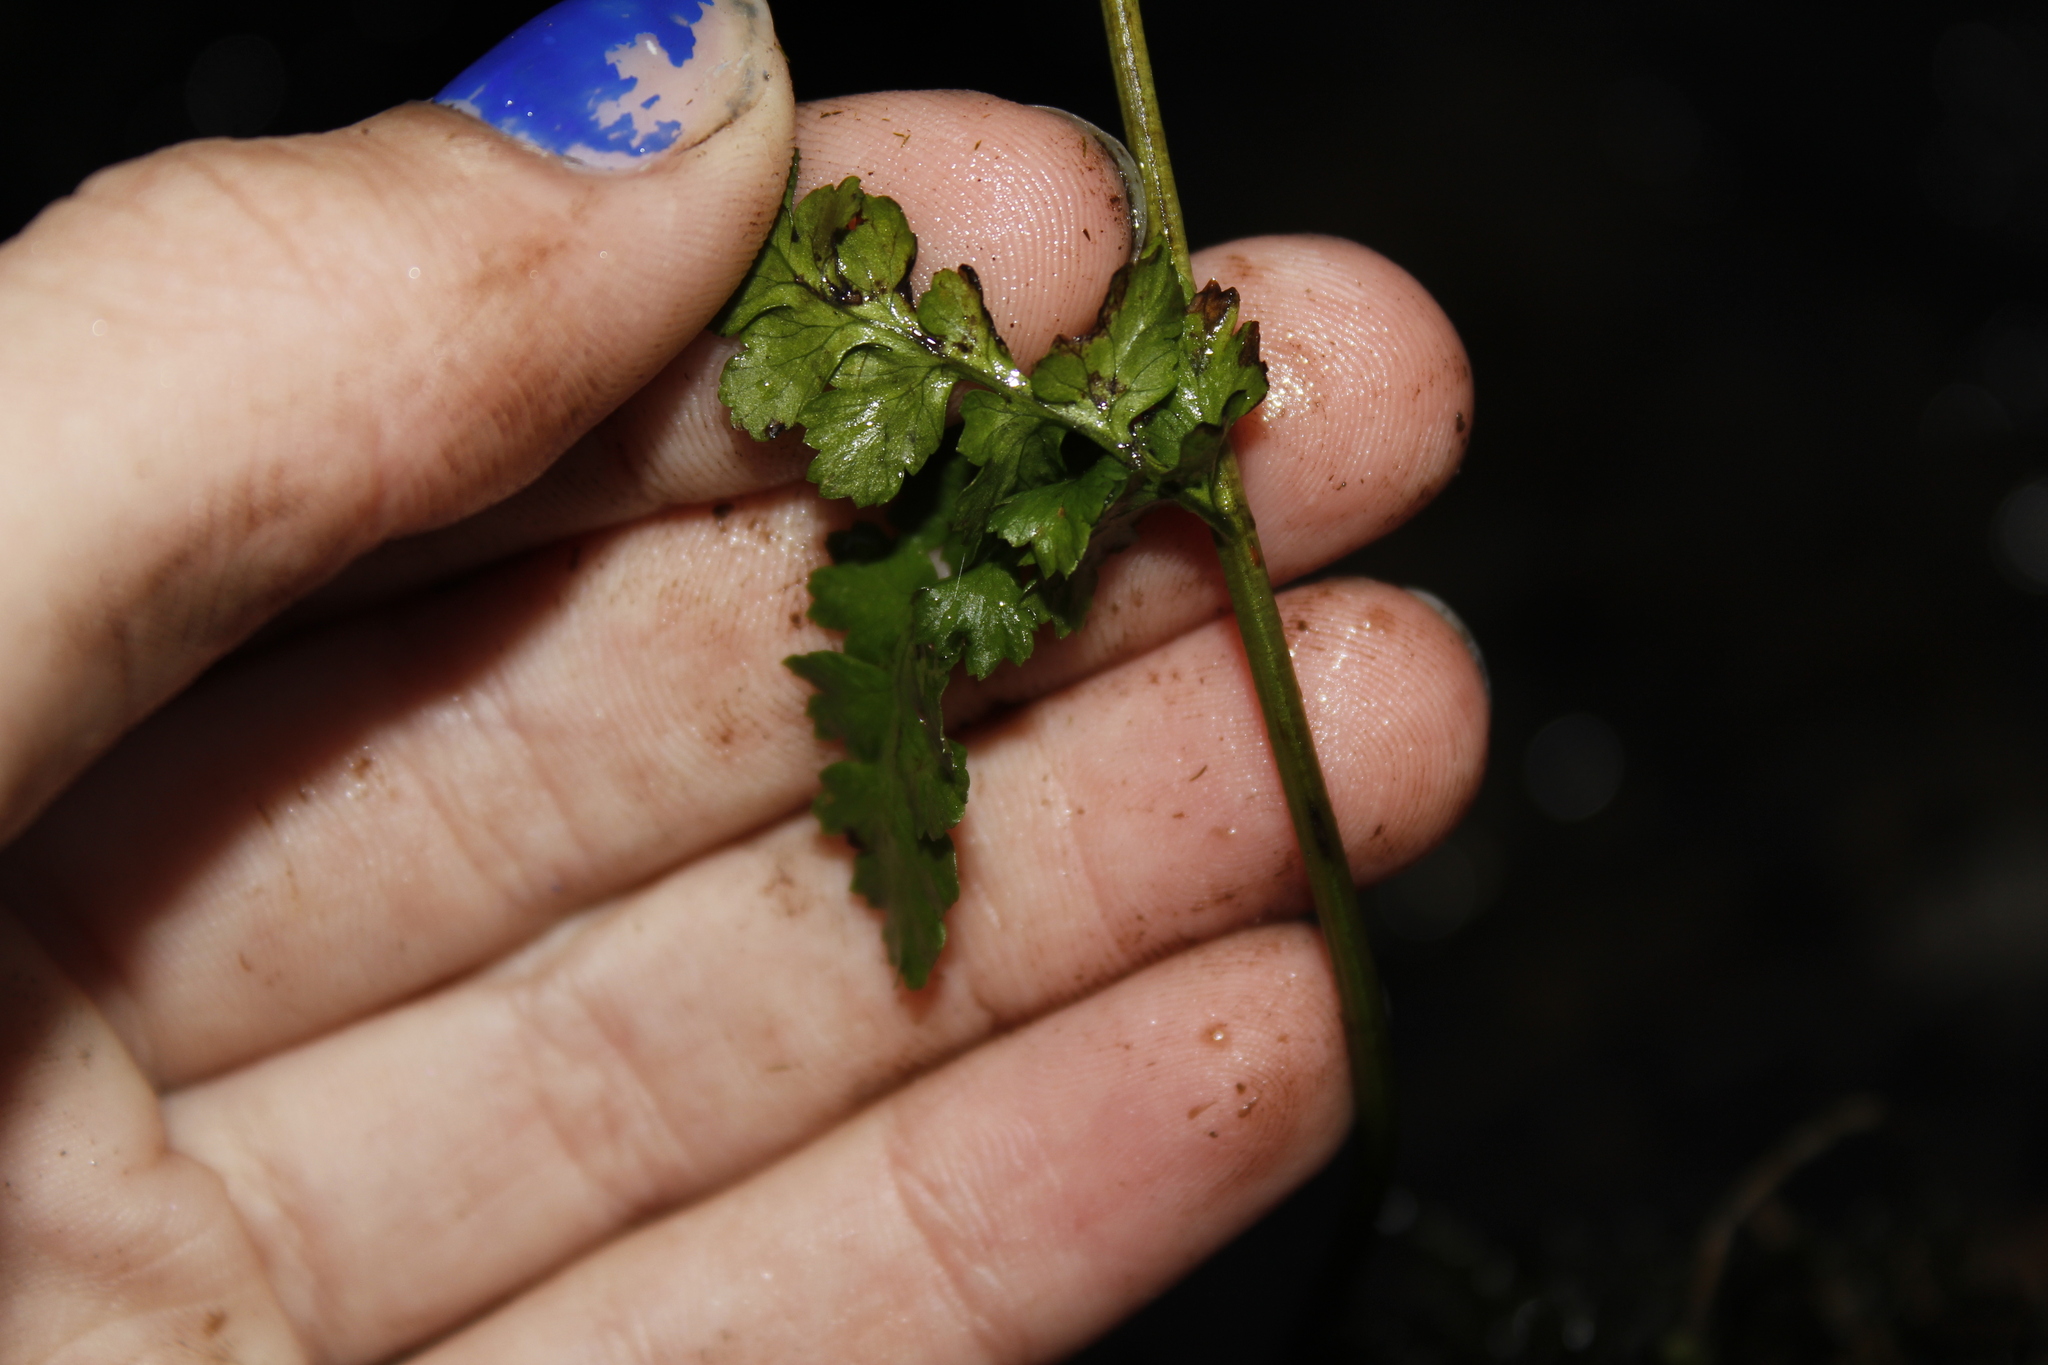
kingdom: Plantae
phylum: Tracheophyta
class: Polypodiopsida
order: Polypodiales
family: Dryopteridaceae
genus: Dryopteris
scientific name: Dryopteris cristata
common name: Crested wood fern
